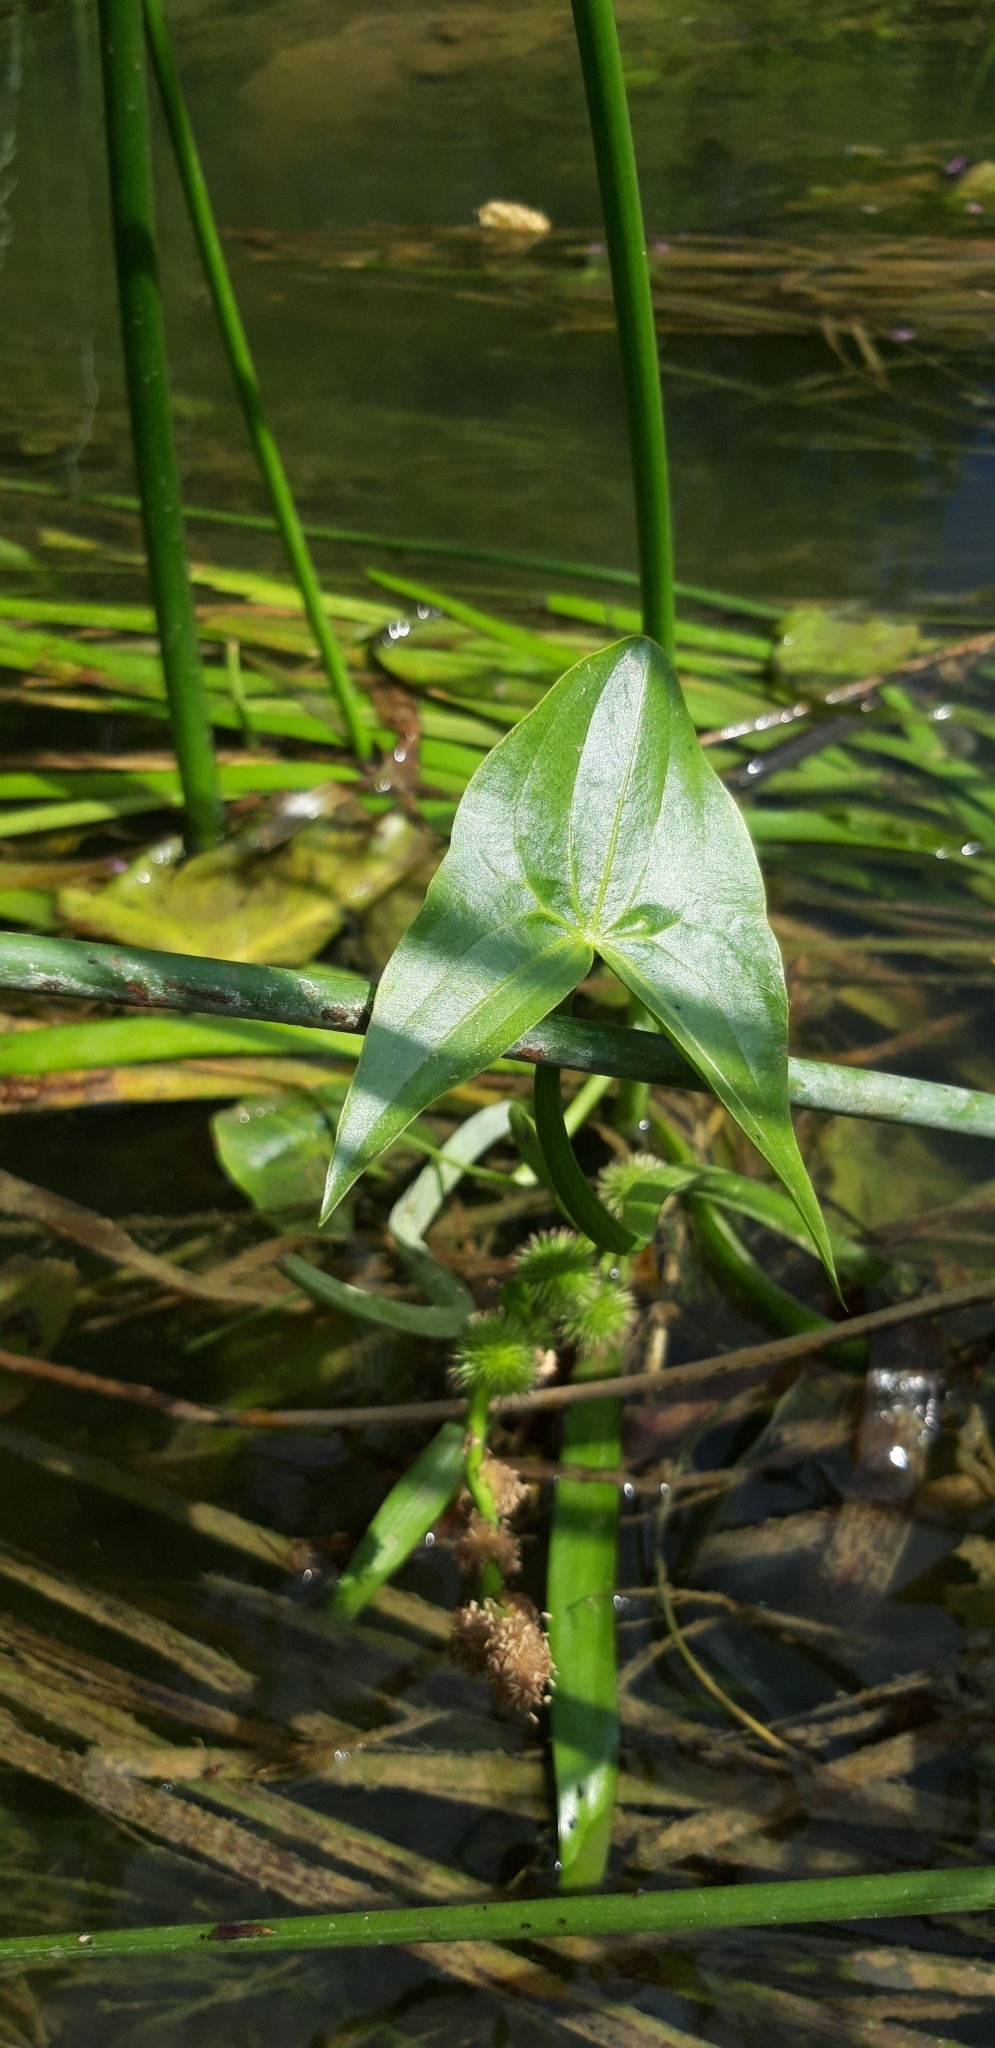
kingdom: Plantae
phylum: Tracheophyta
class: Liliopsida
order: Alismatales
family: Alismataceae
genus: Sagittaria
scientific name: Sagittaria sagittifolia
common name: Arrowhead
